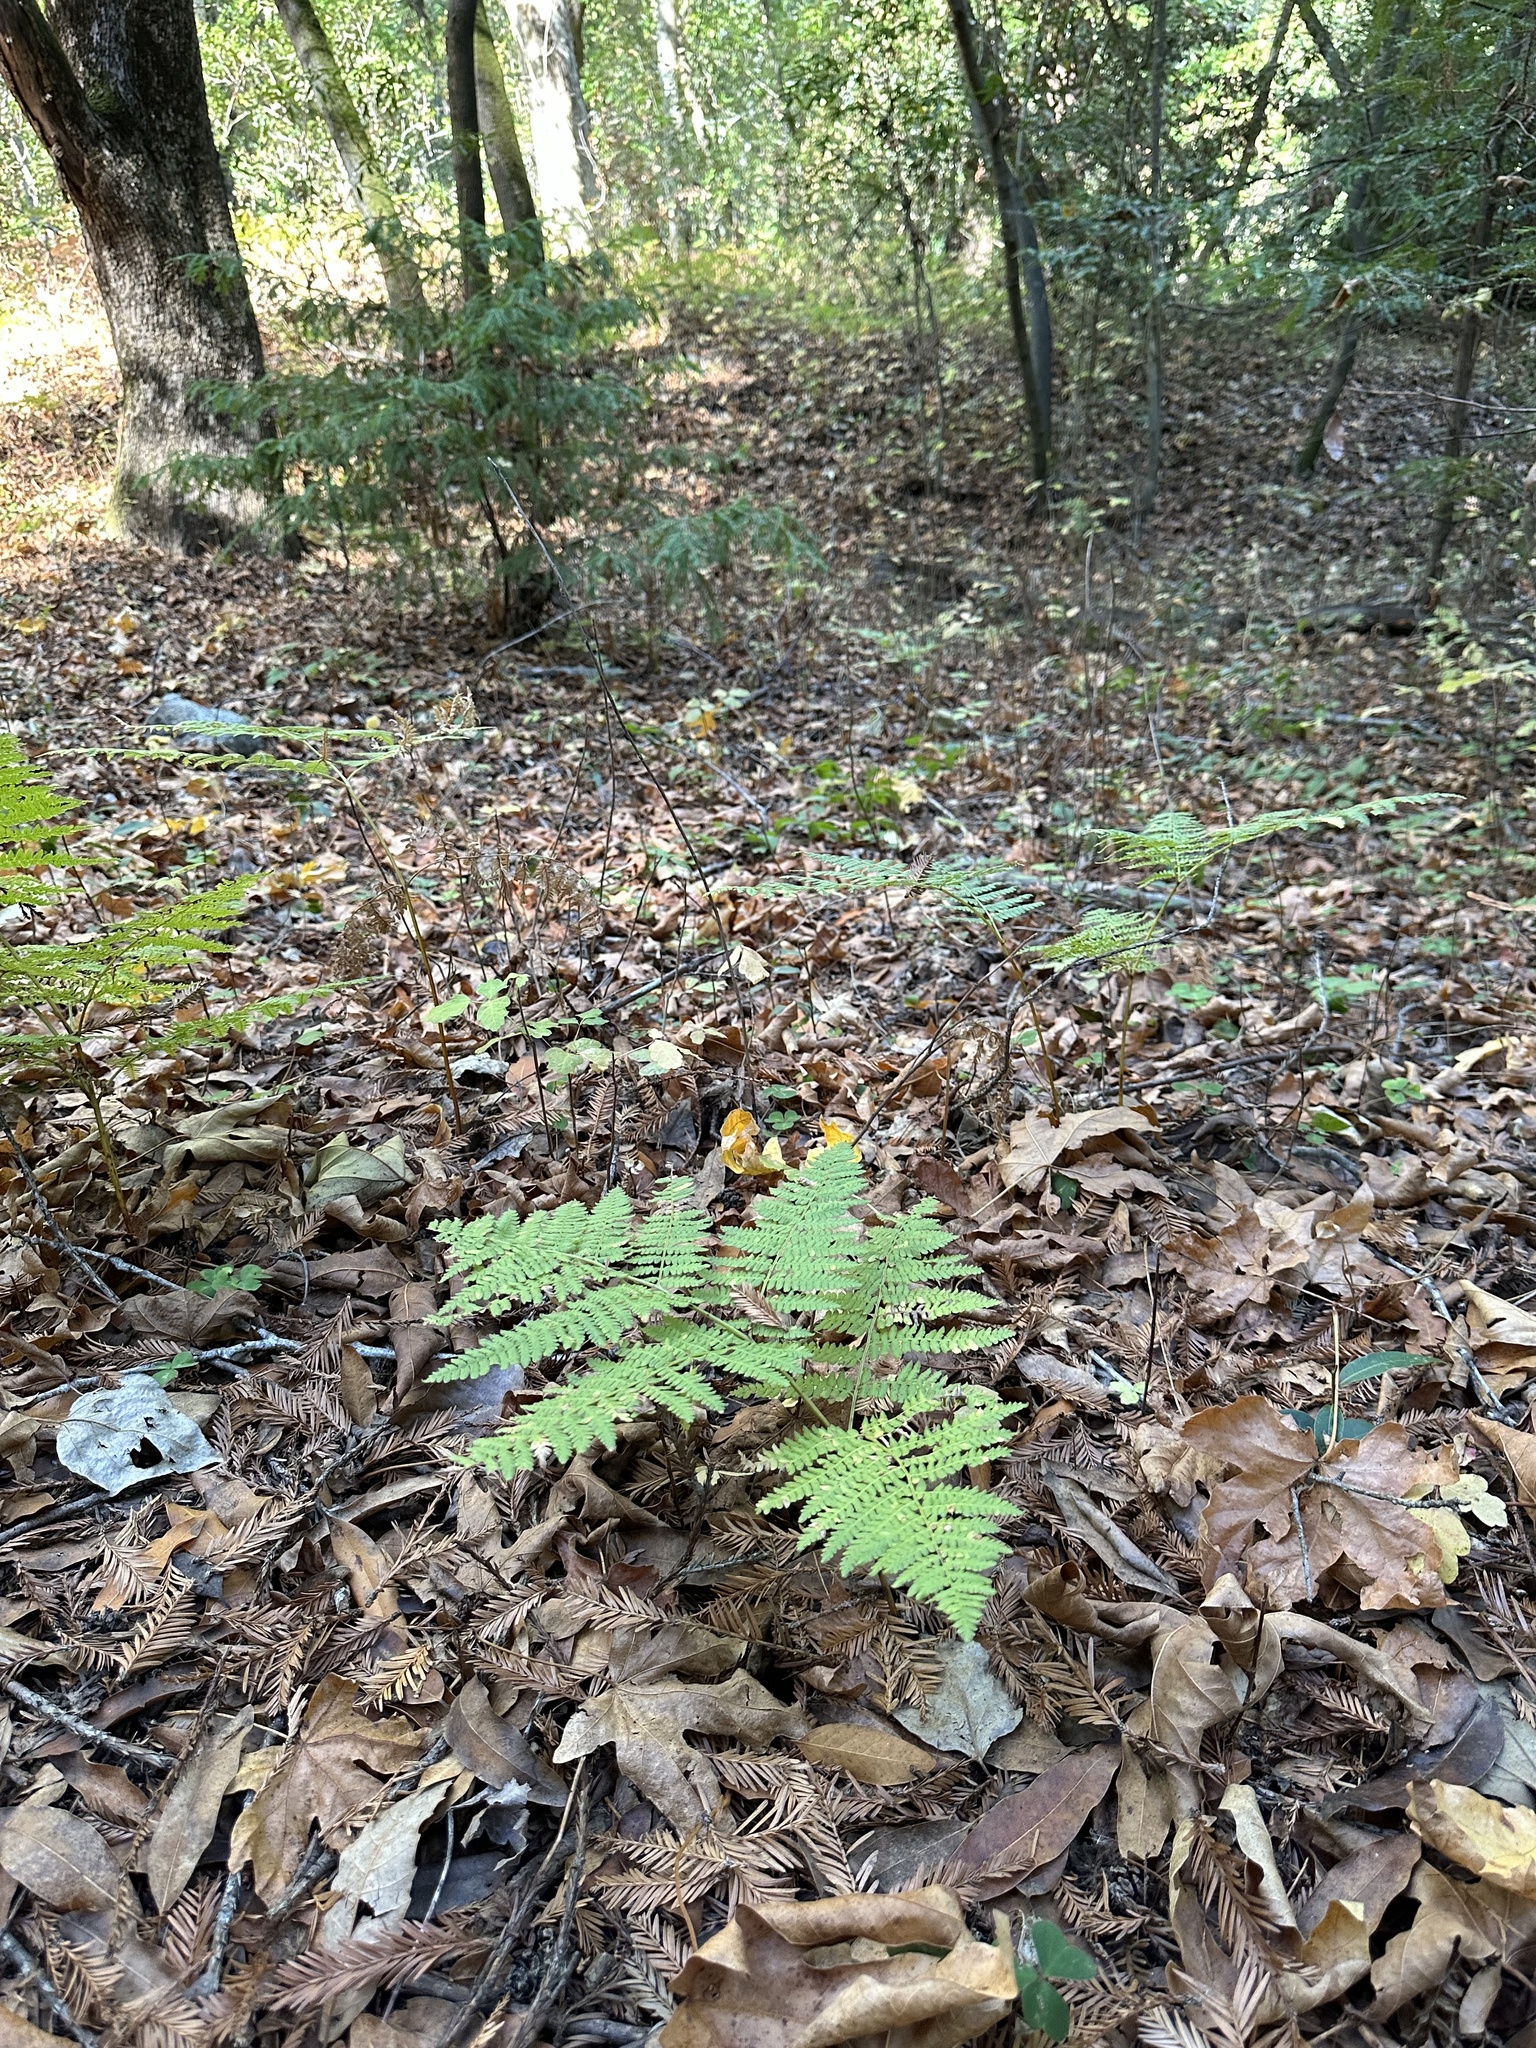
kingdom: Plantae
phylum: Tracheophyta
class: Polypodiopsida
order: Polypodiales
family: Dennstaedtiaceae
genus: Pteridium
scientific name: Pteridium aquilinum
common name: Bracken
